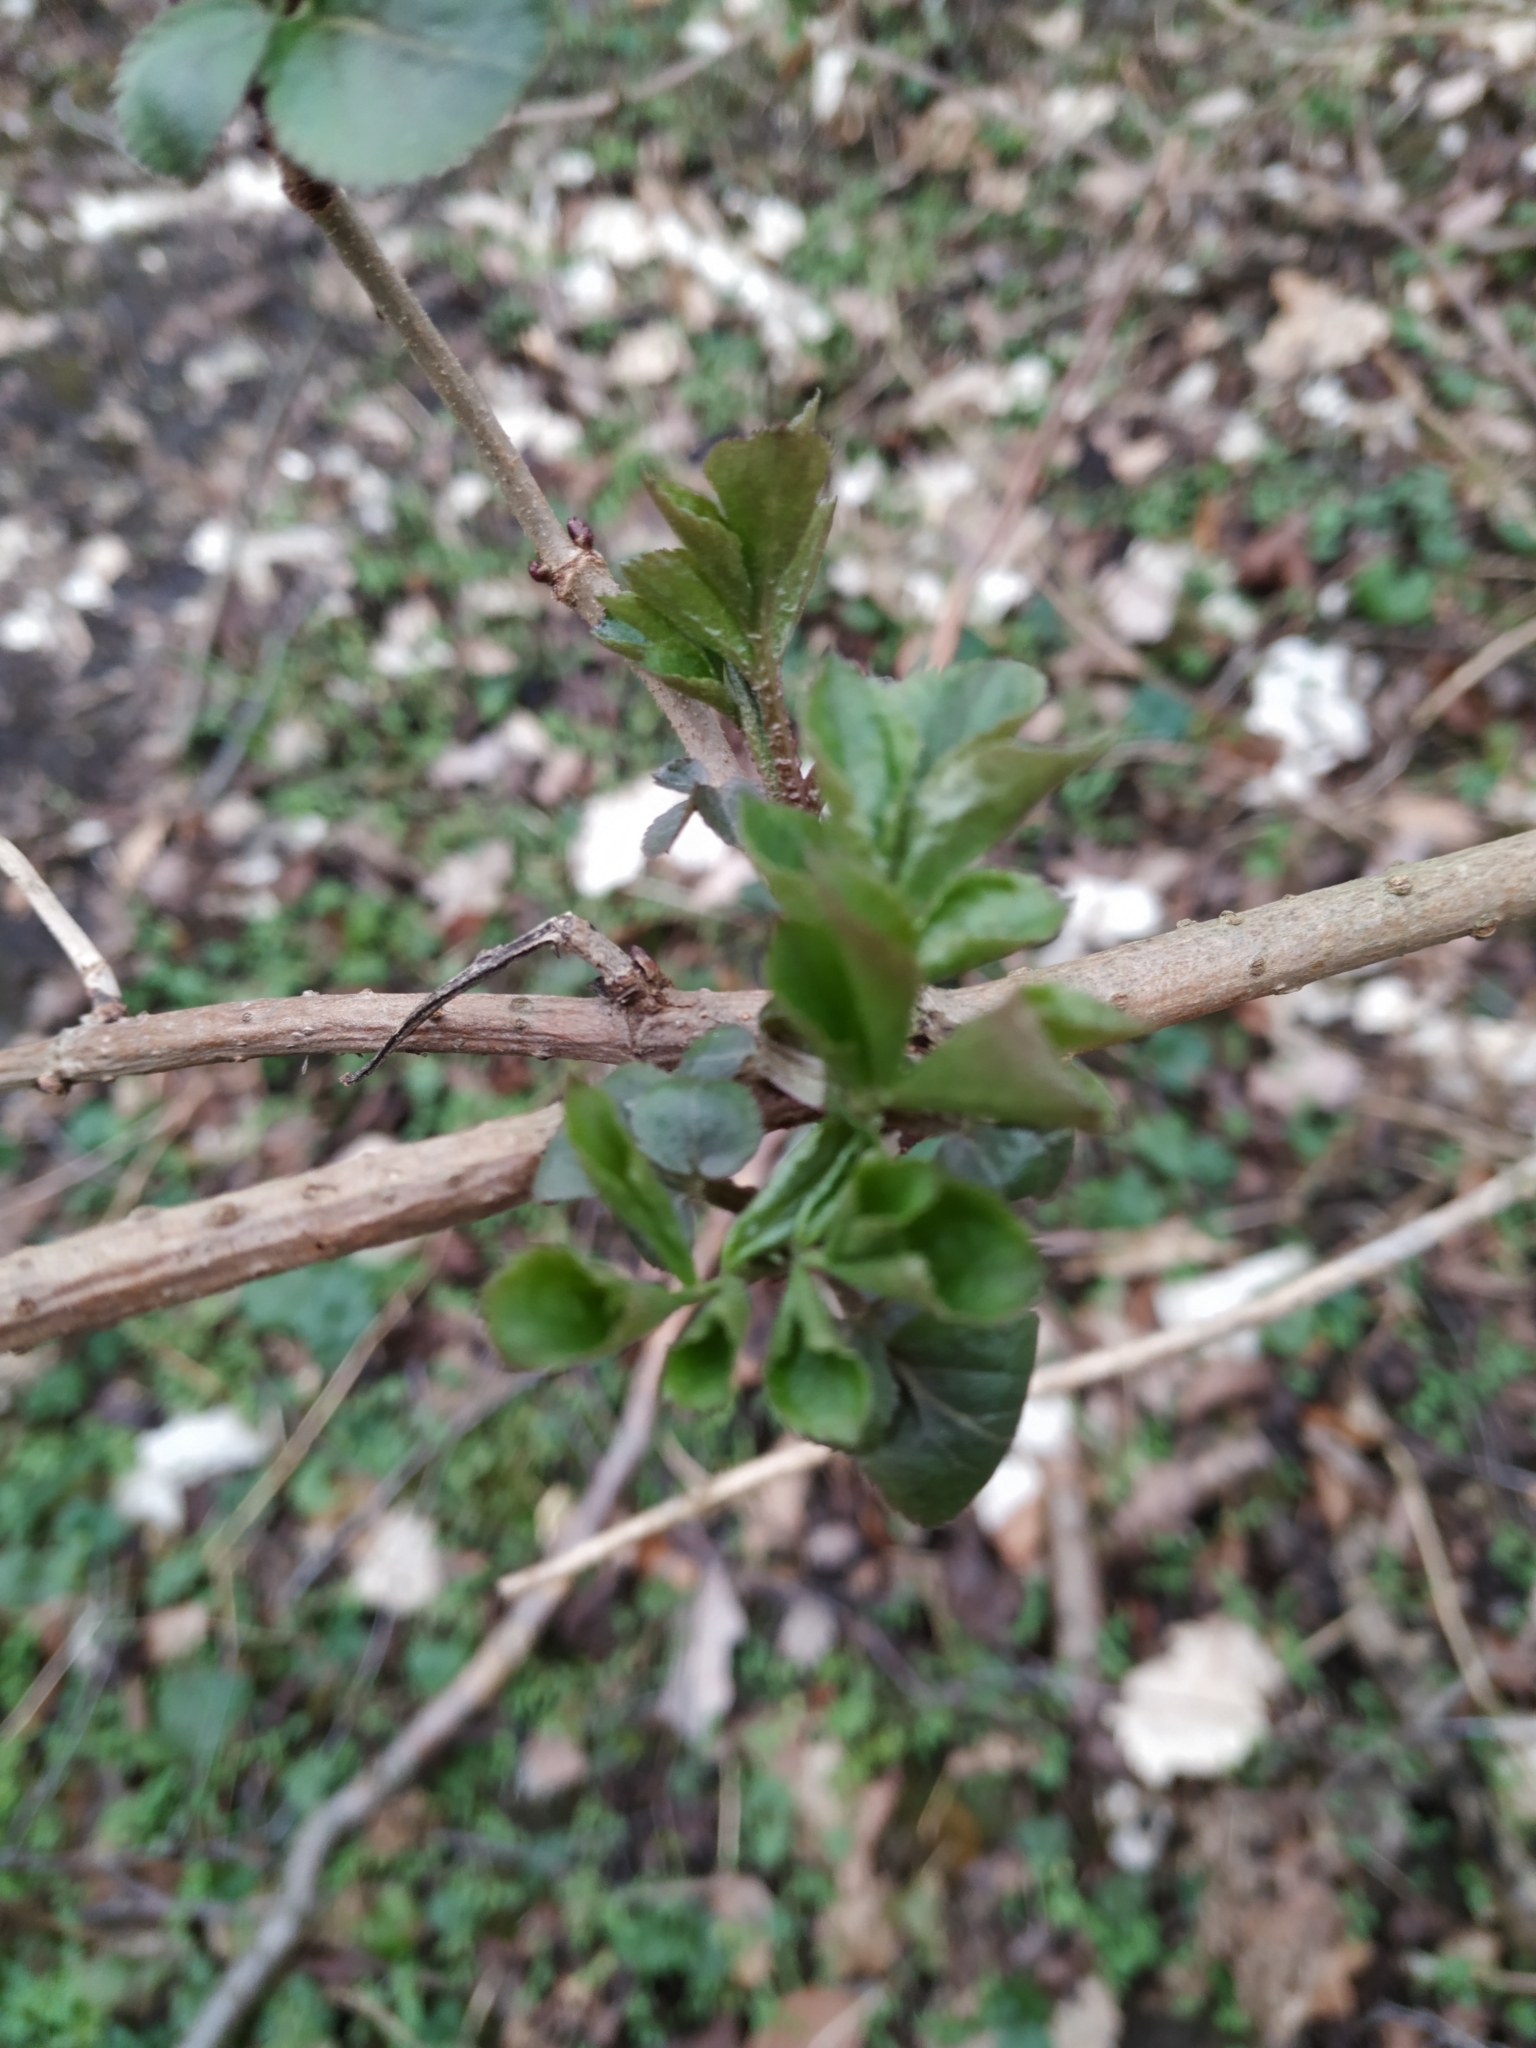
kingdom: Plantae
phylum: Tracheophyta
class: Magnoliopsida
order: Dipsacales
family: Viburnaceae
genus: Sambucus
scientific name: Sambucus nigra
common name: Elder
